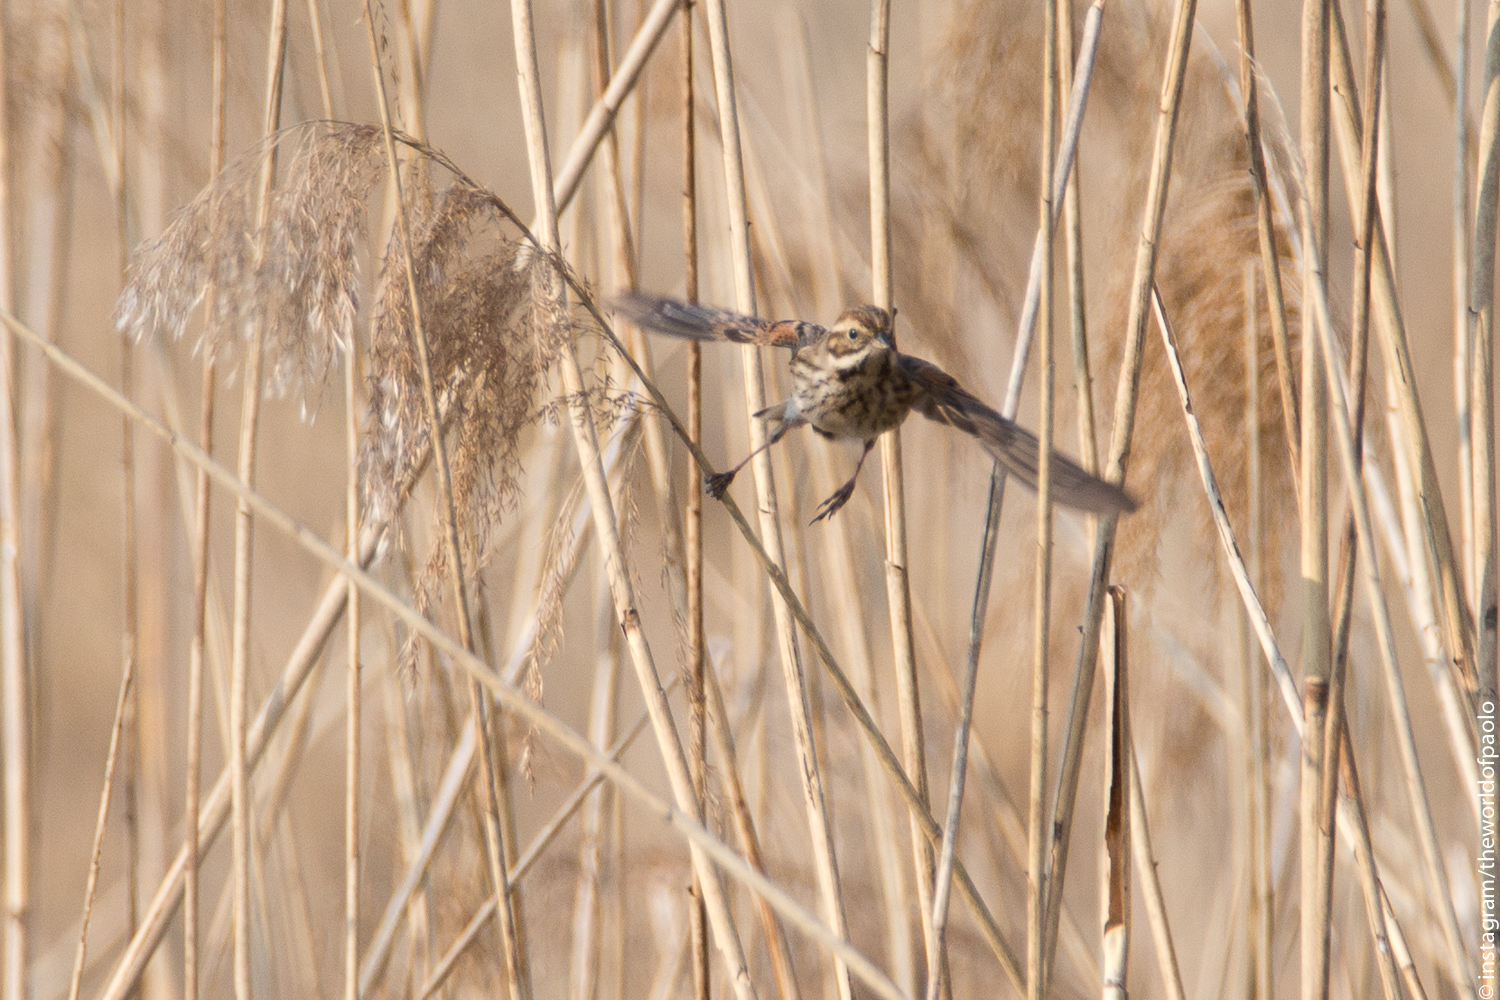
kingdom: Animalia
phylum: Chordata
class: Aves
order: Passeriformes
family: Emberizidae
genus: Emberiza
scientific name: Emberiza schoeniclus
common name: Reed bunting
